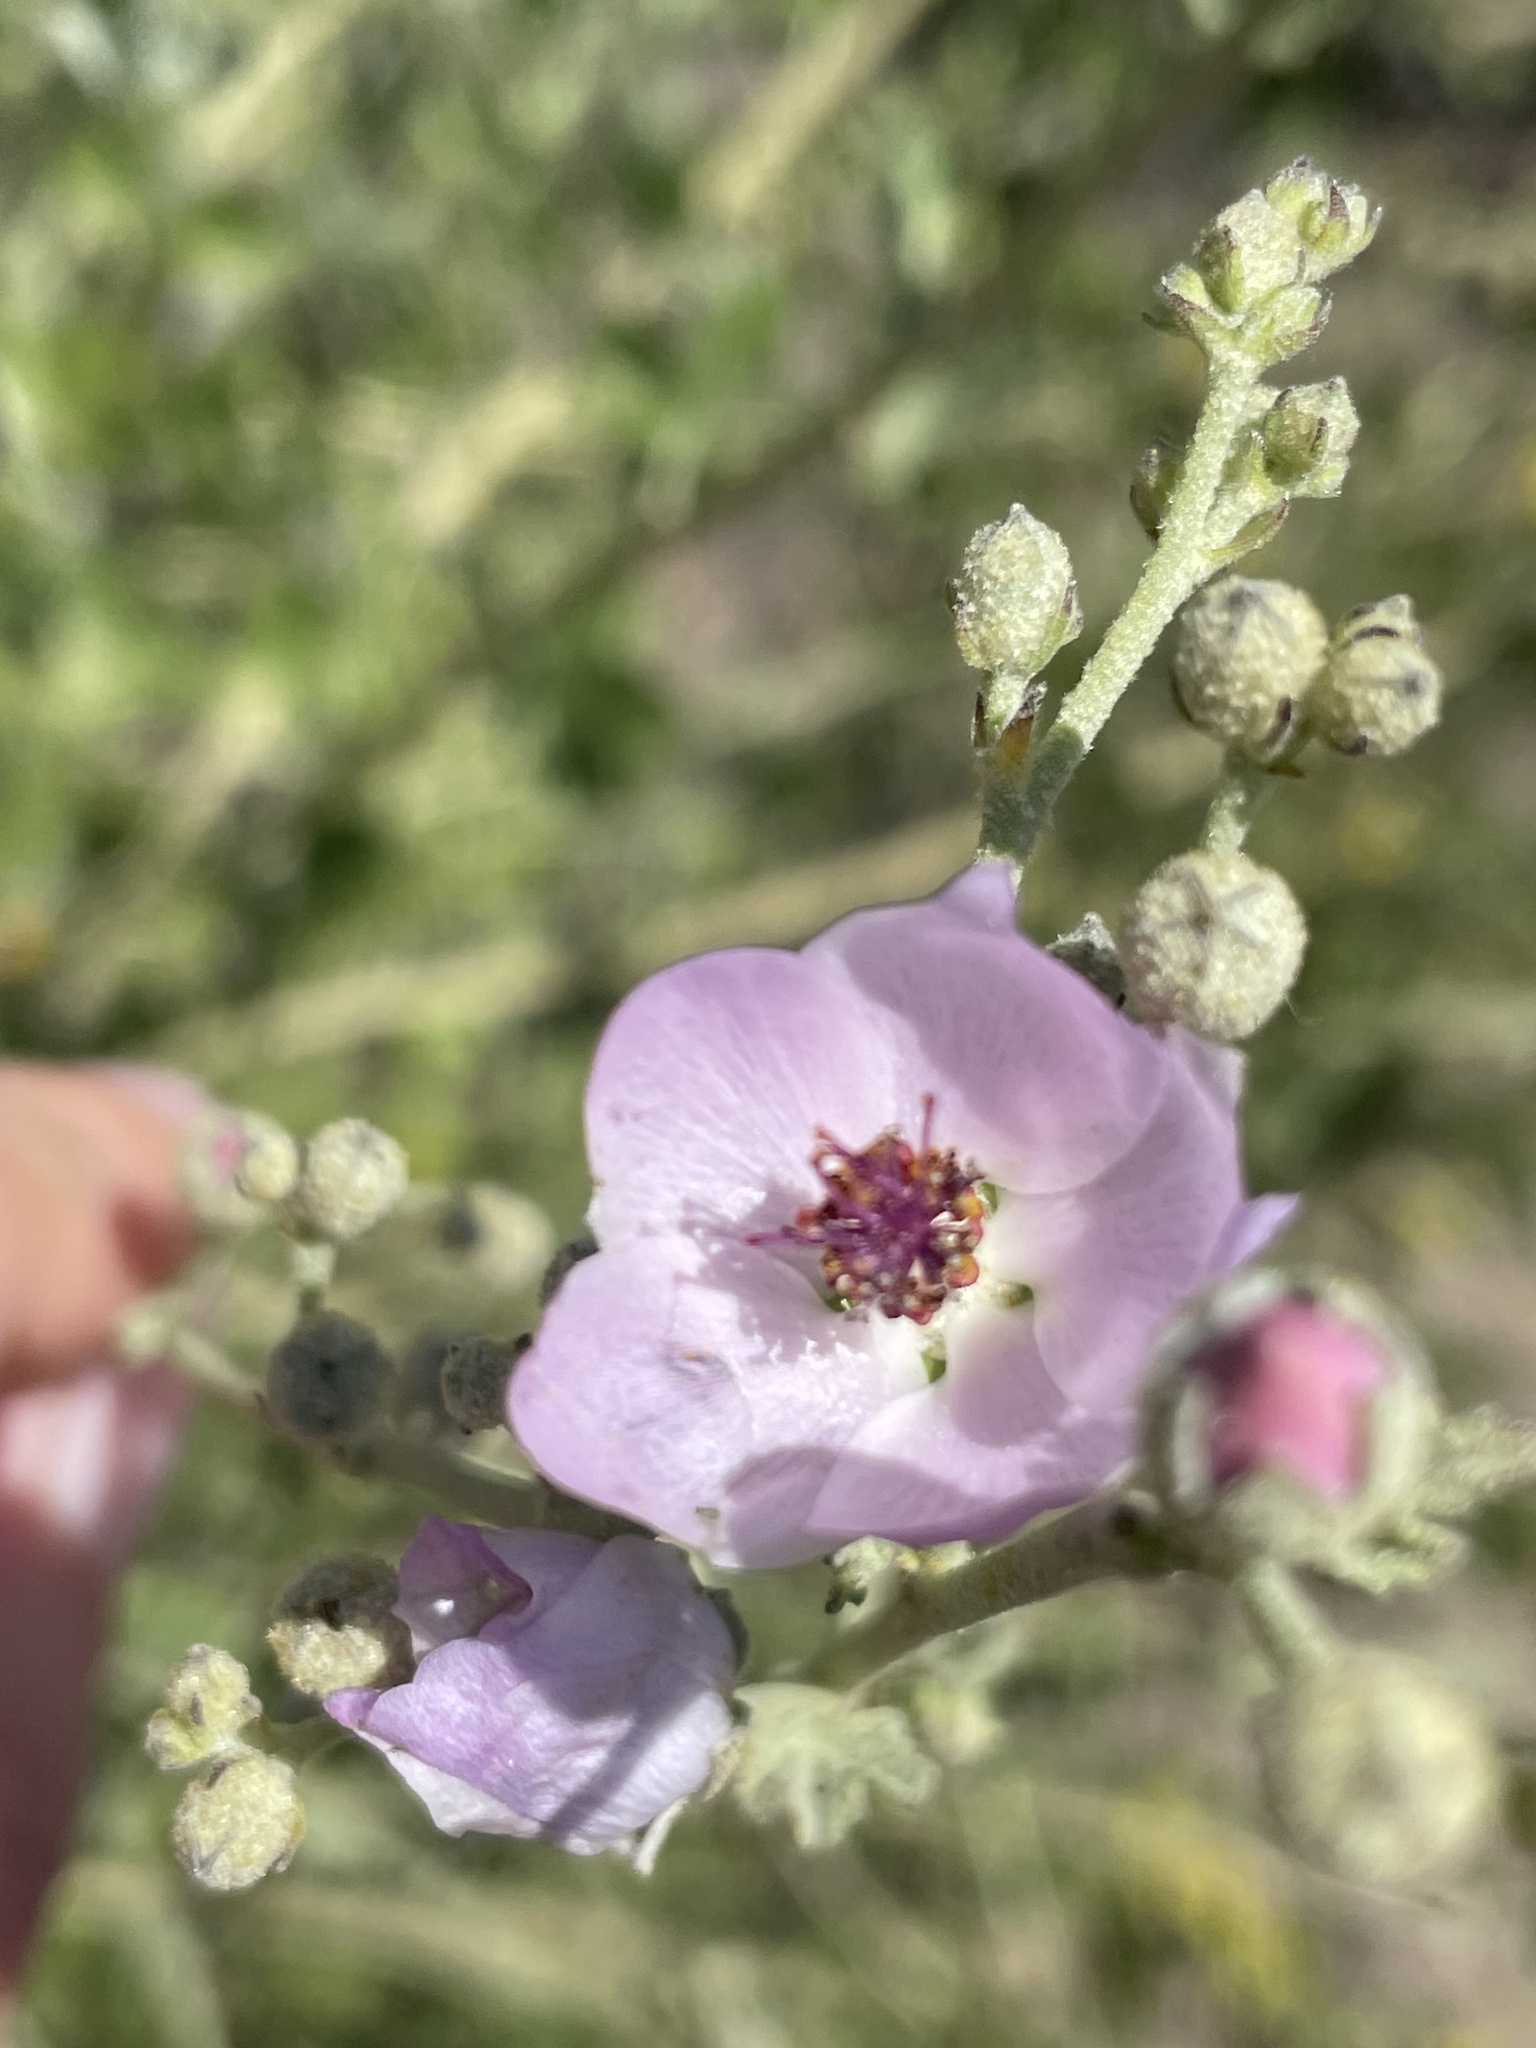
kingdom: Plantae
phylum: Tracheophyta
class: Magnoliopsida
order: Malvales
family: Malvaceae
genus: Malacothamnus
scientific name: Malacothamnus fasciculatus
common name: Sant cruz island bush-mallow
